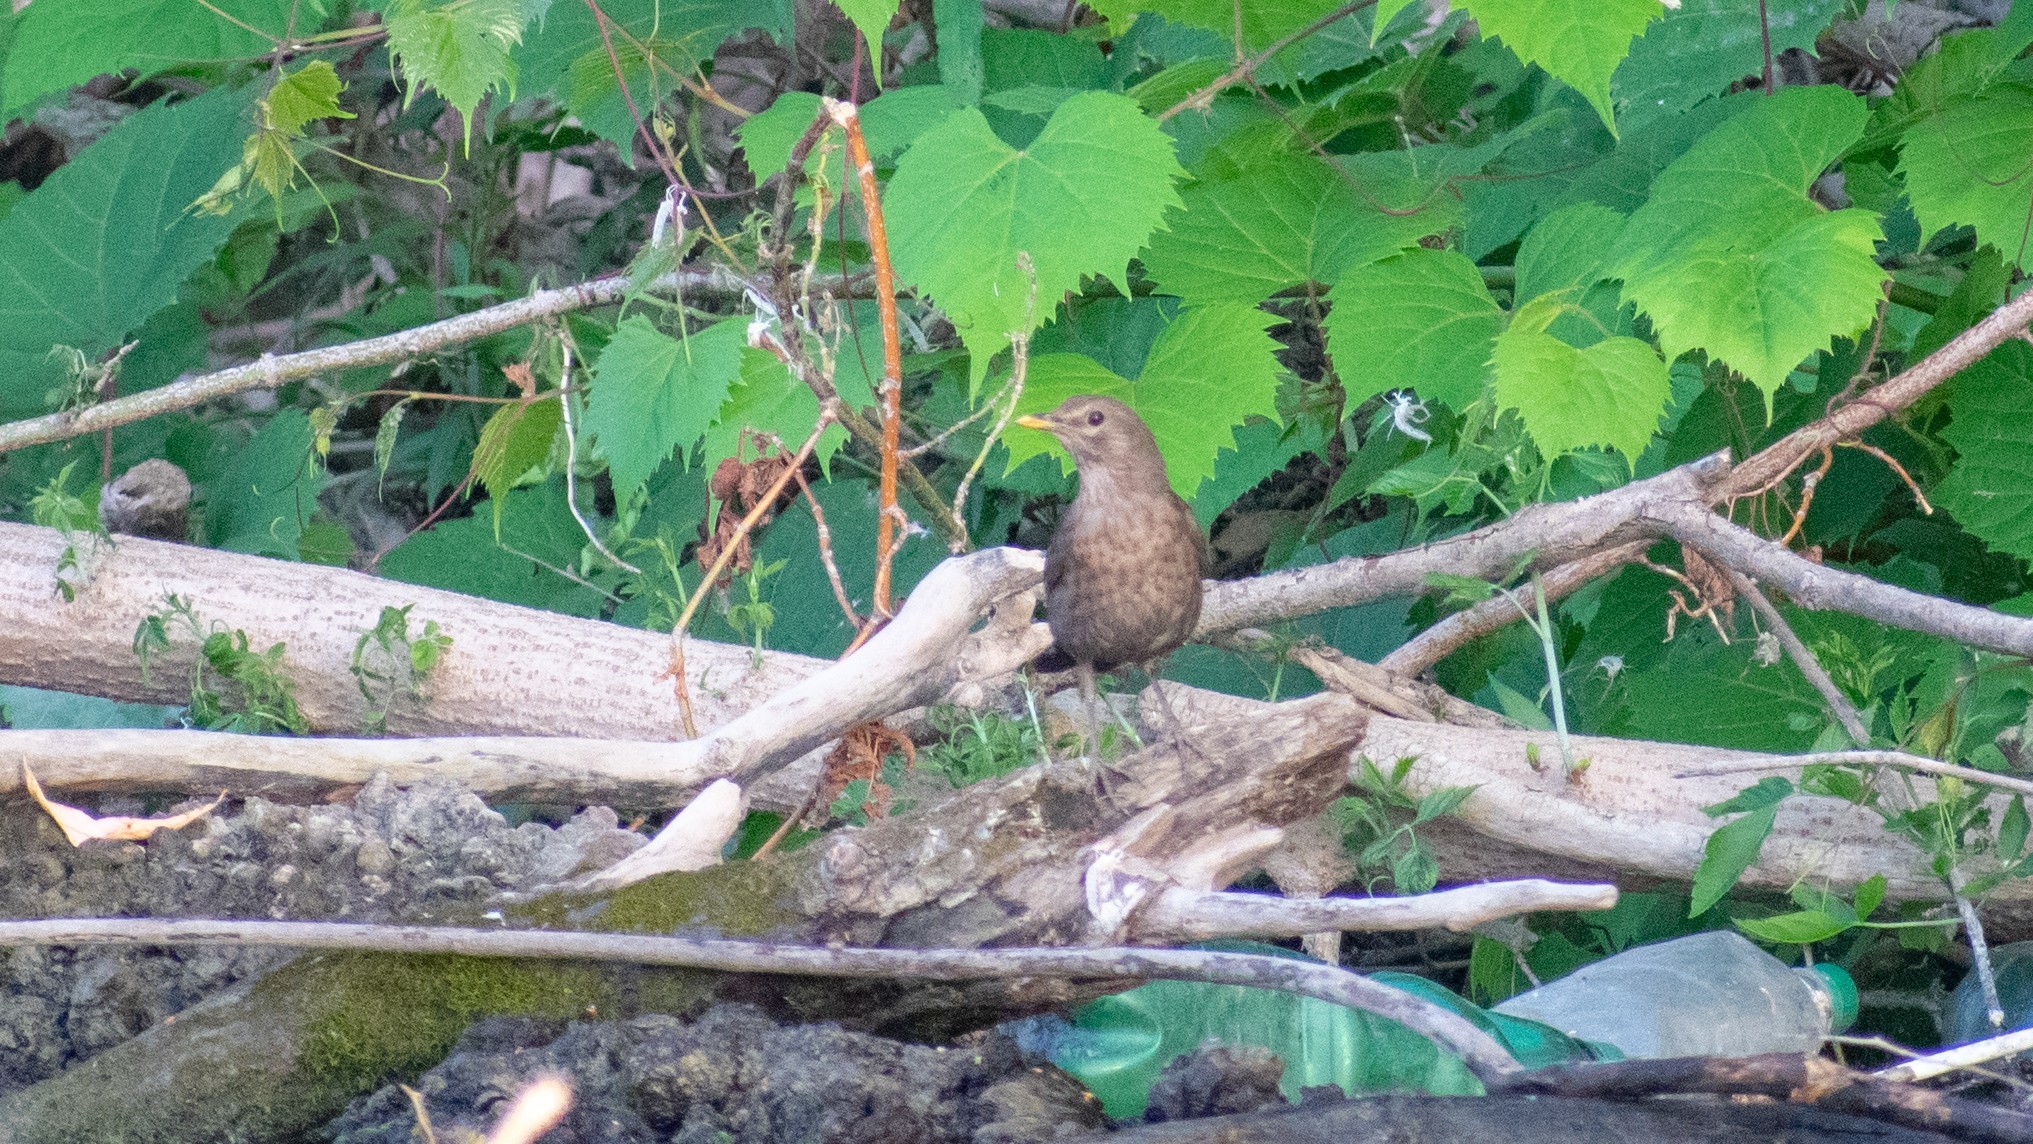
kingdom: Animalia
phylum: Chordata
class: Aves
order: Passeriformes
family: Turdidae
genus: Turdus
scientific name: Turdus merula
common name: Common blackbird
